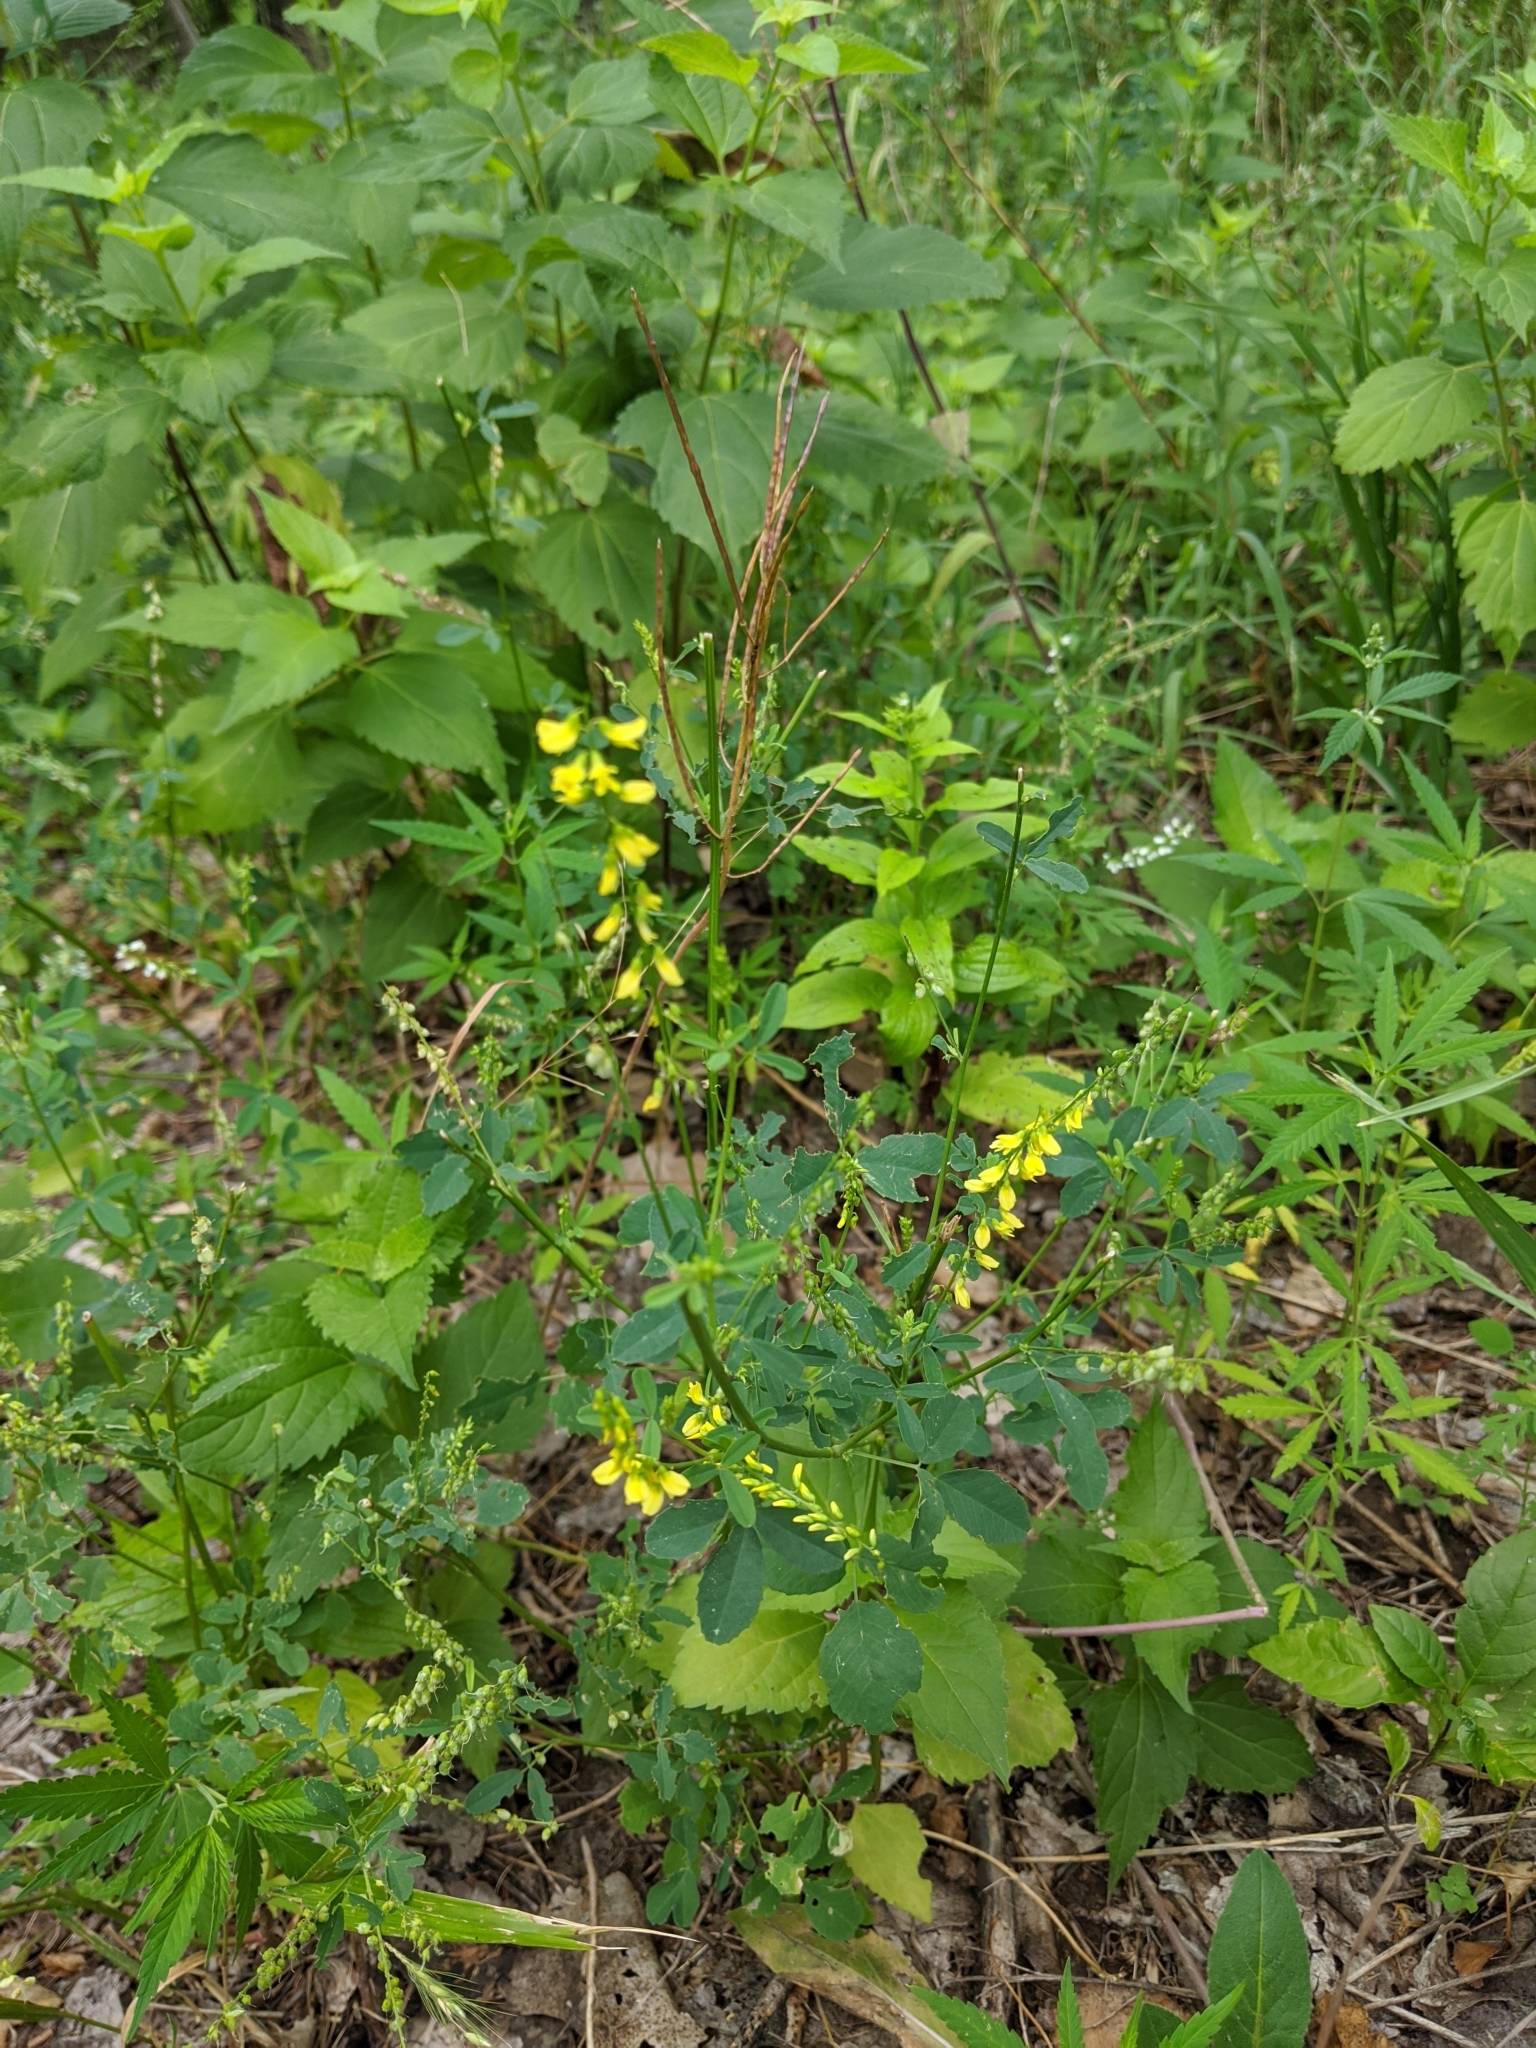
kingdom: Plantae
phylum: Tracheophyta
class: Magnoliopsida
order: Fabales
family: Fabaceae
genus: Melilotus
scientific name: Melilotus officinalis
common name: Sweetclover
